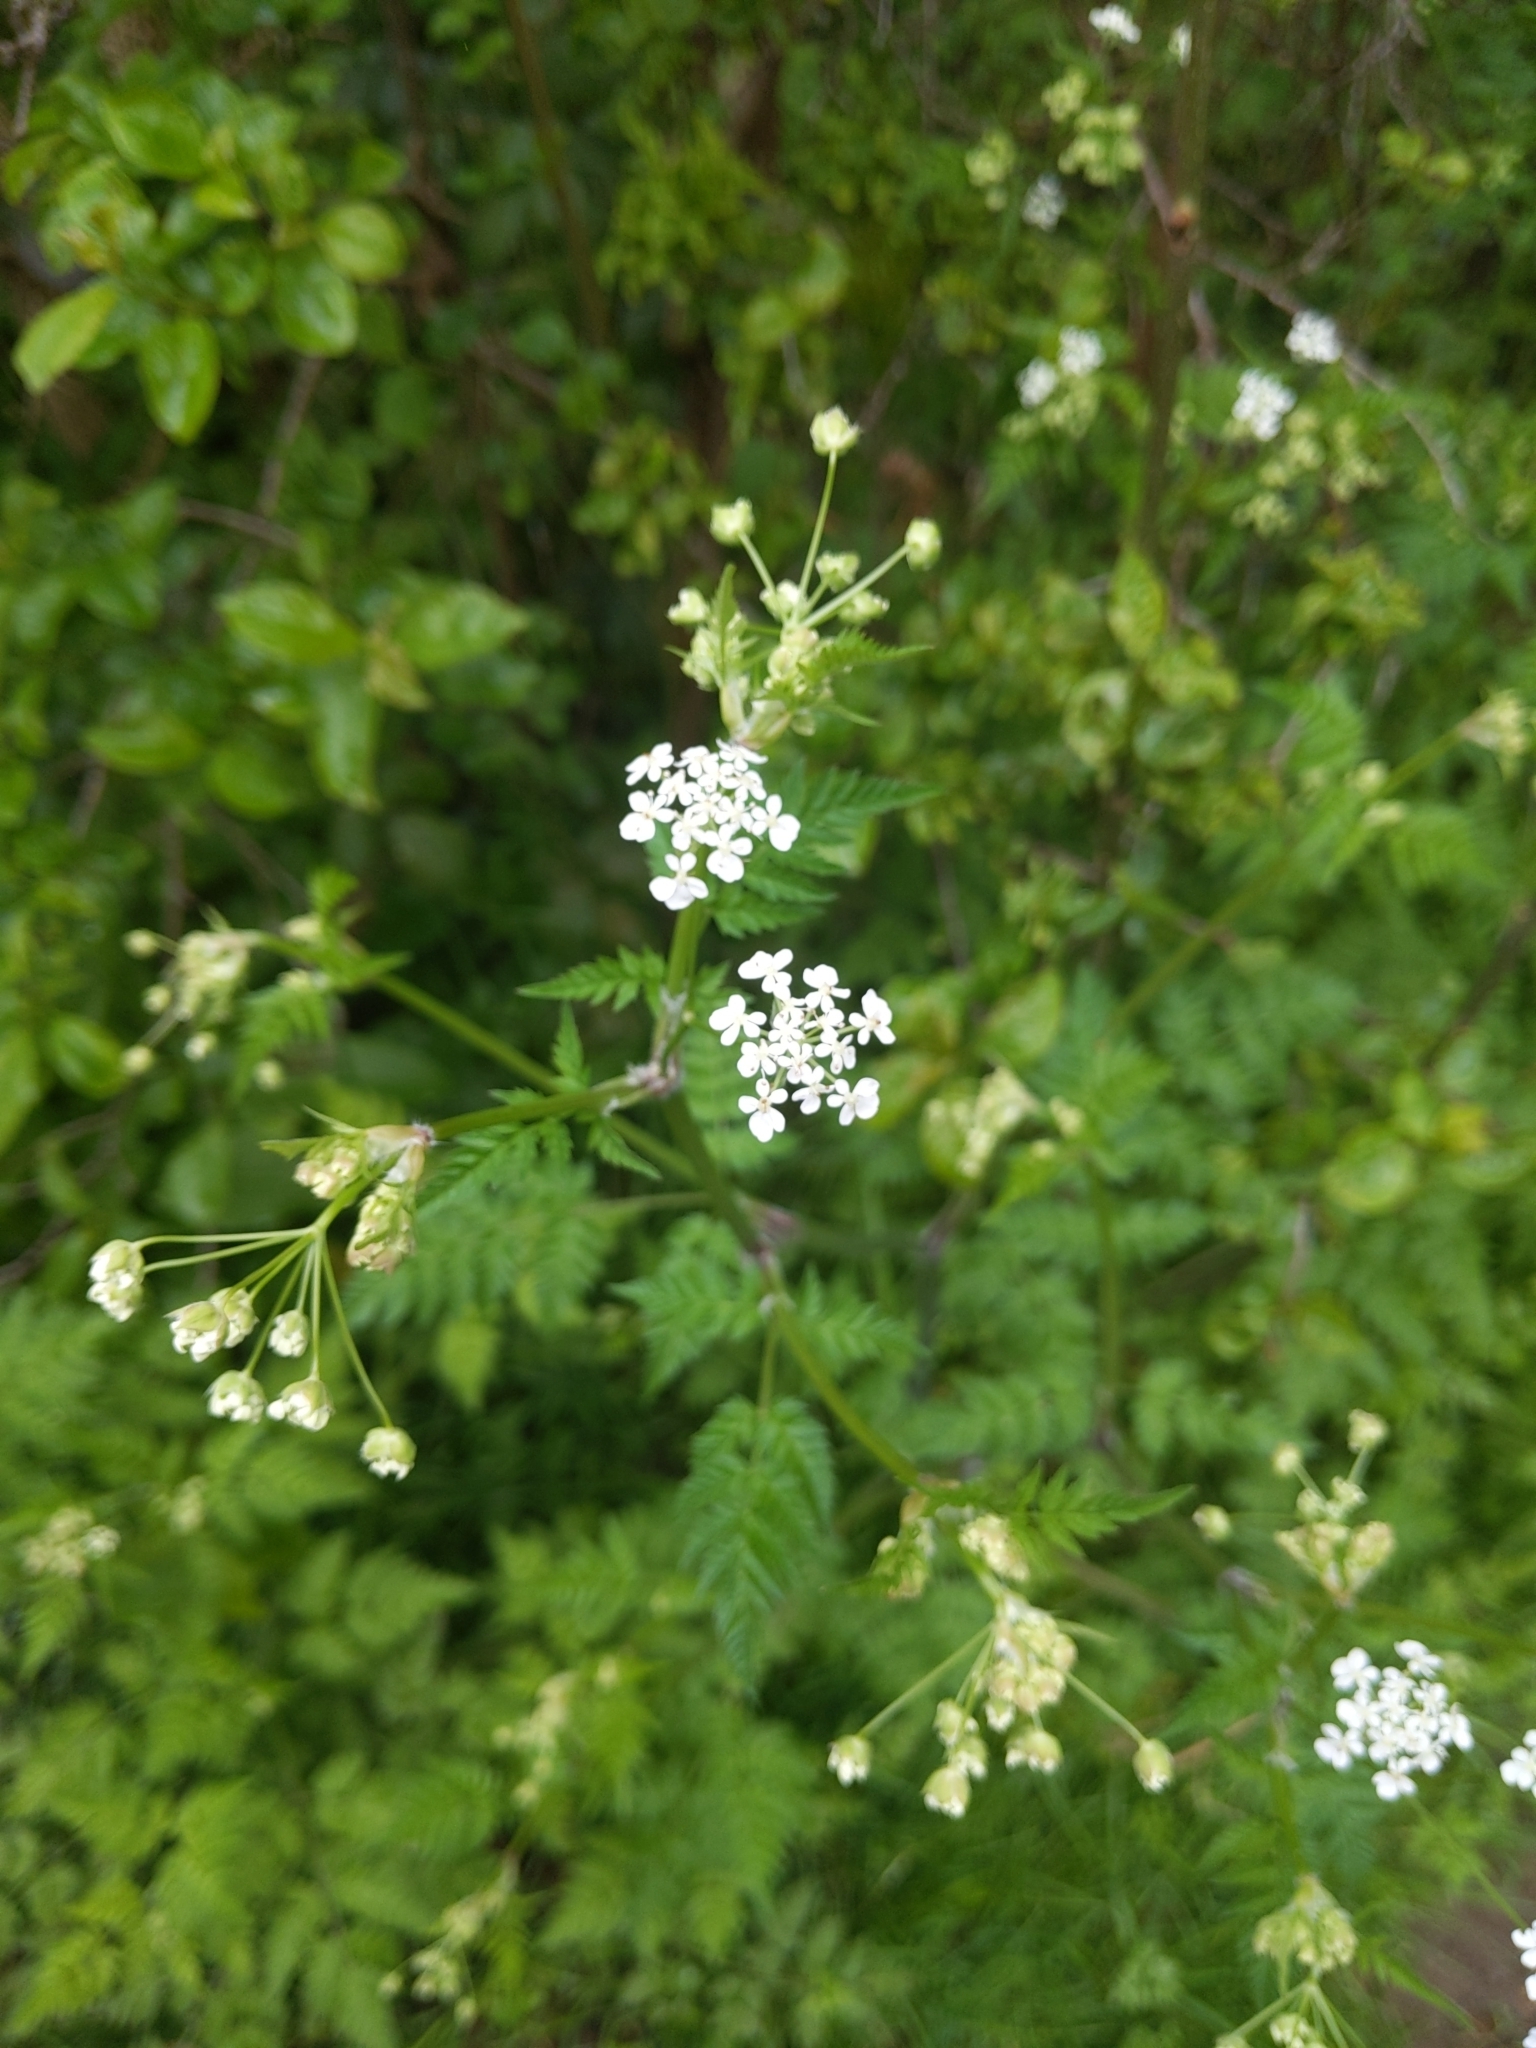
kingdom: Plantae
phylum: Tracheophyta
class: Magnoliopsida
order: Apiales
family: Apiaceae
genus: Anthriscus
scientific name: Anthriscus sylvestris
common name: Cow parsley
